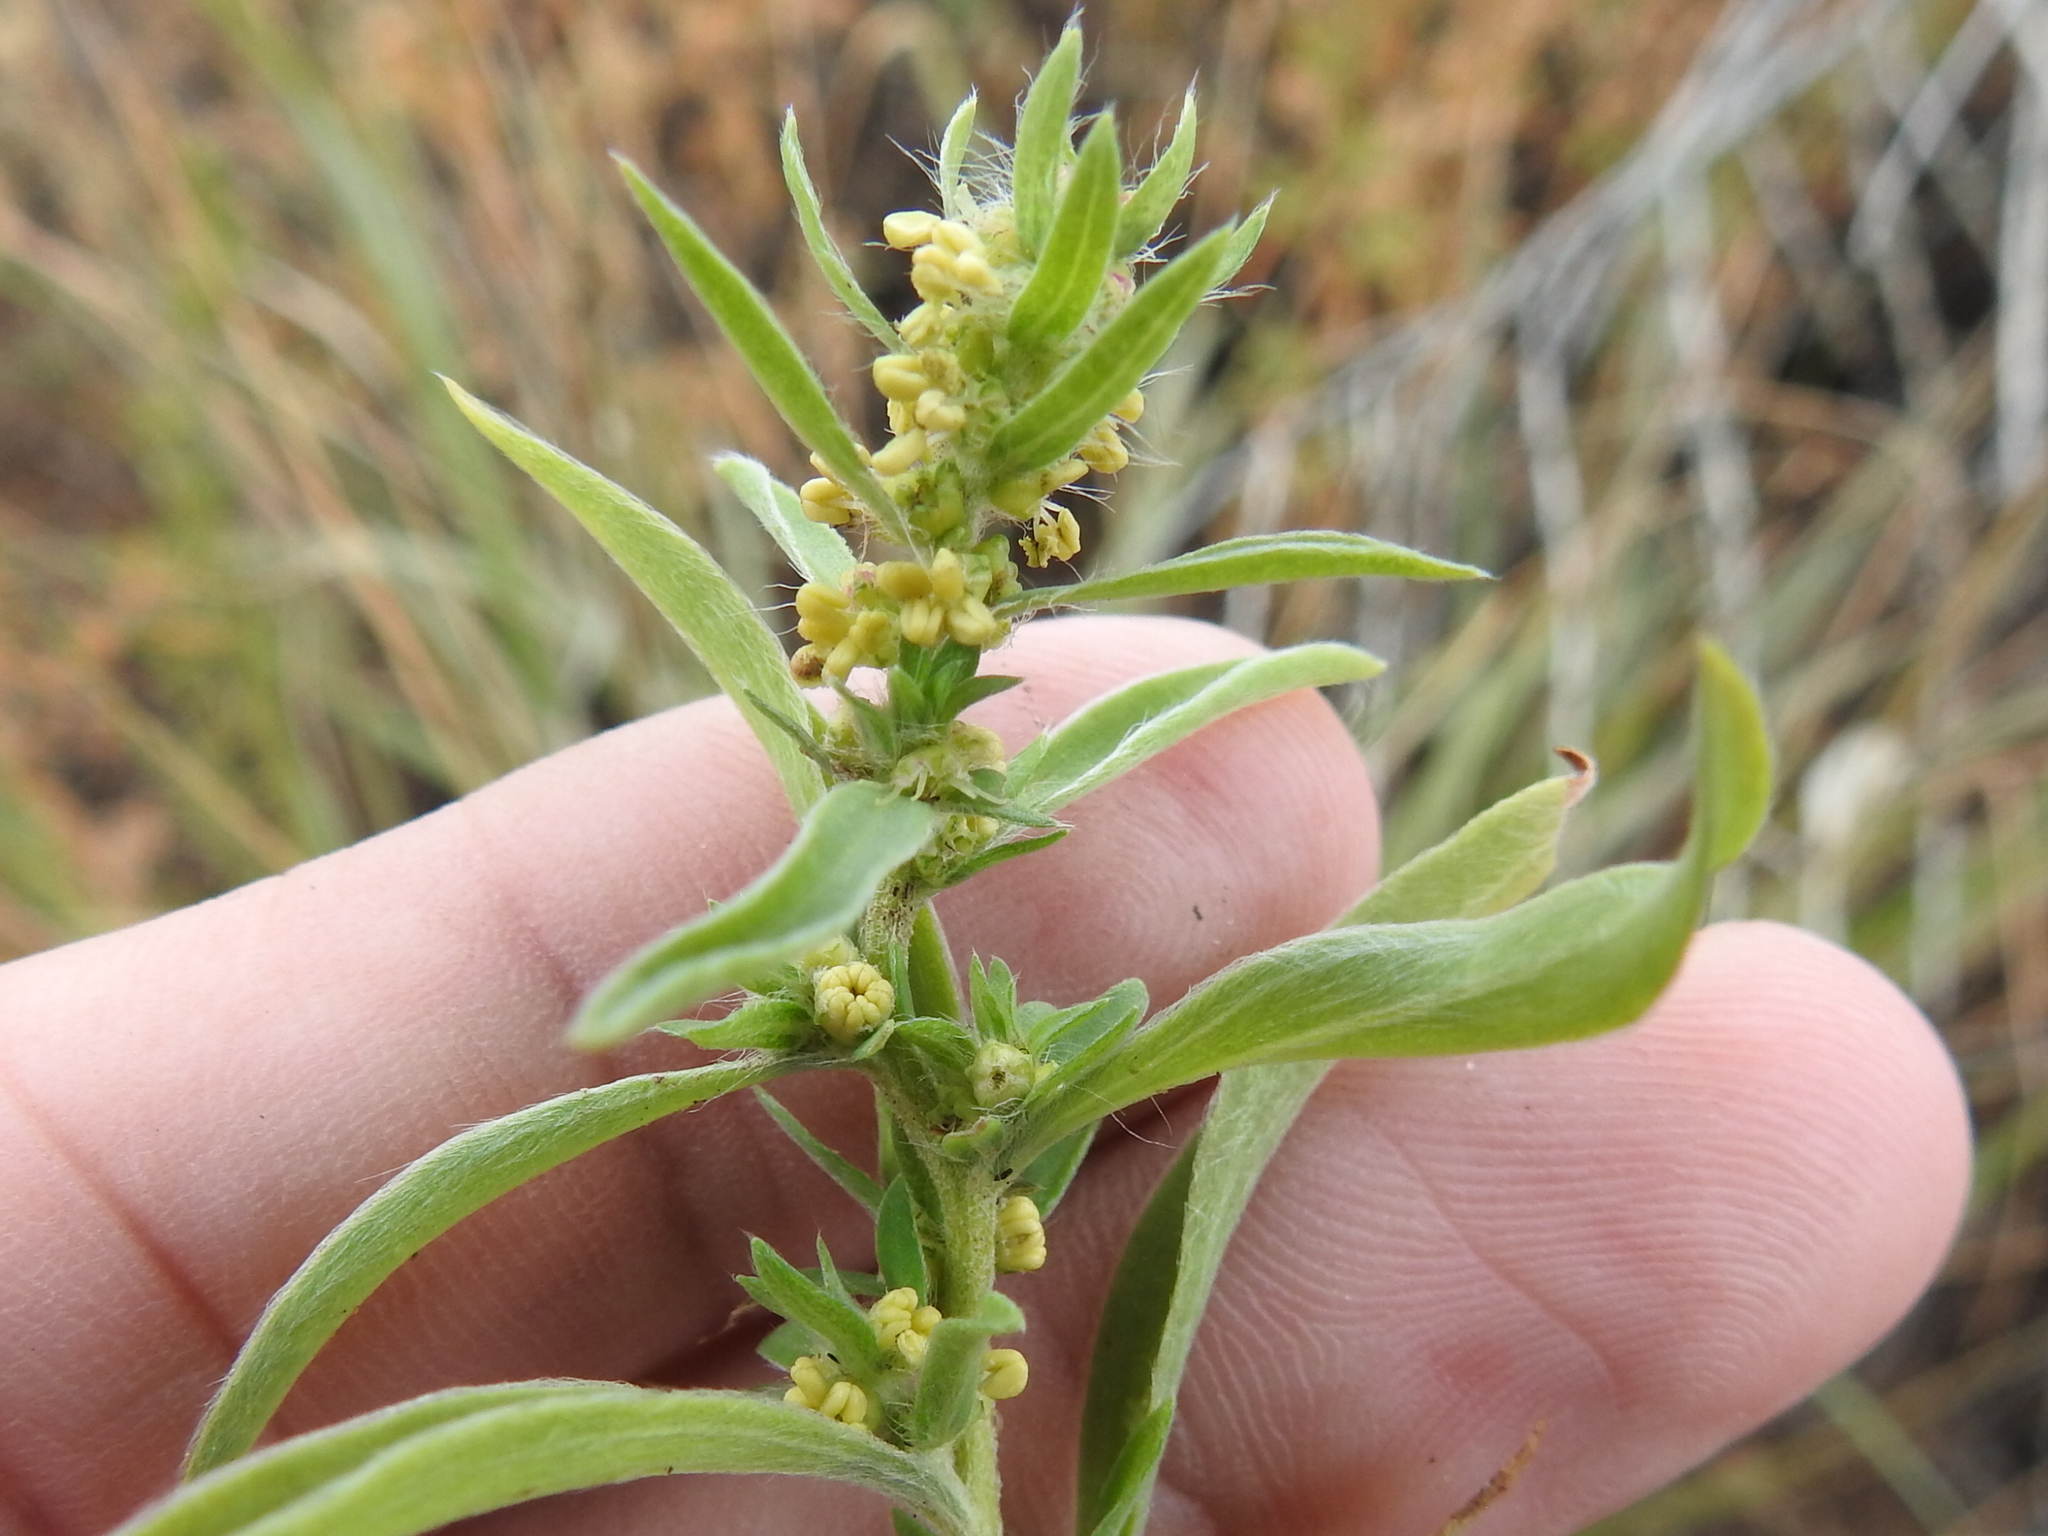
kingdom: Plantae
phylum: Tracheophyta
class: Magnoliopsida
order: Caryophyllales
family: Amaranthaceae
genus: Bassia
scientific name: Bassia scoparia
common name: Belvedere
